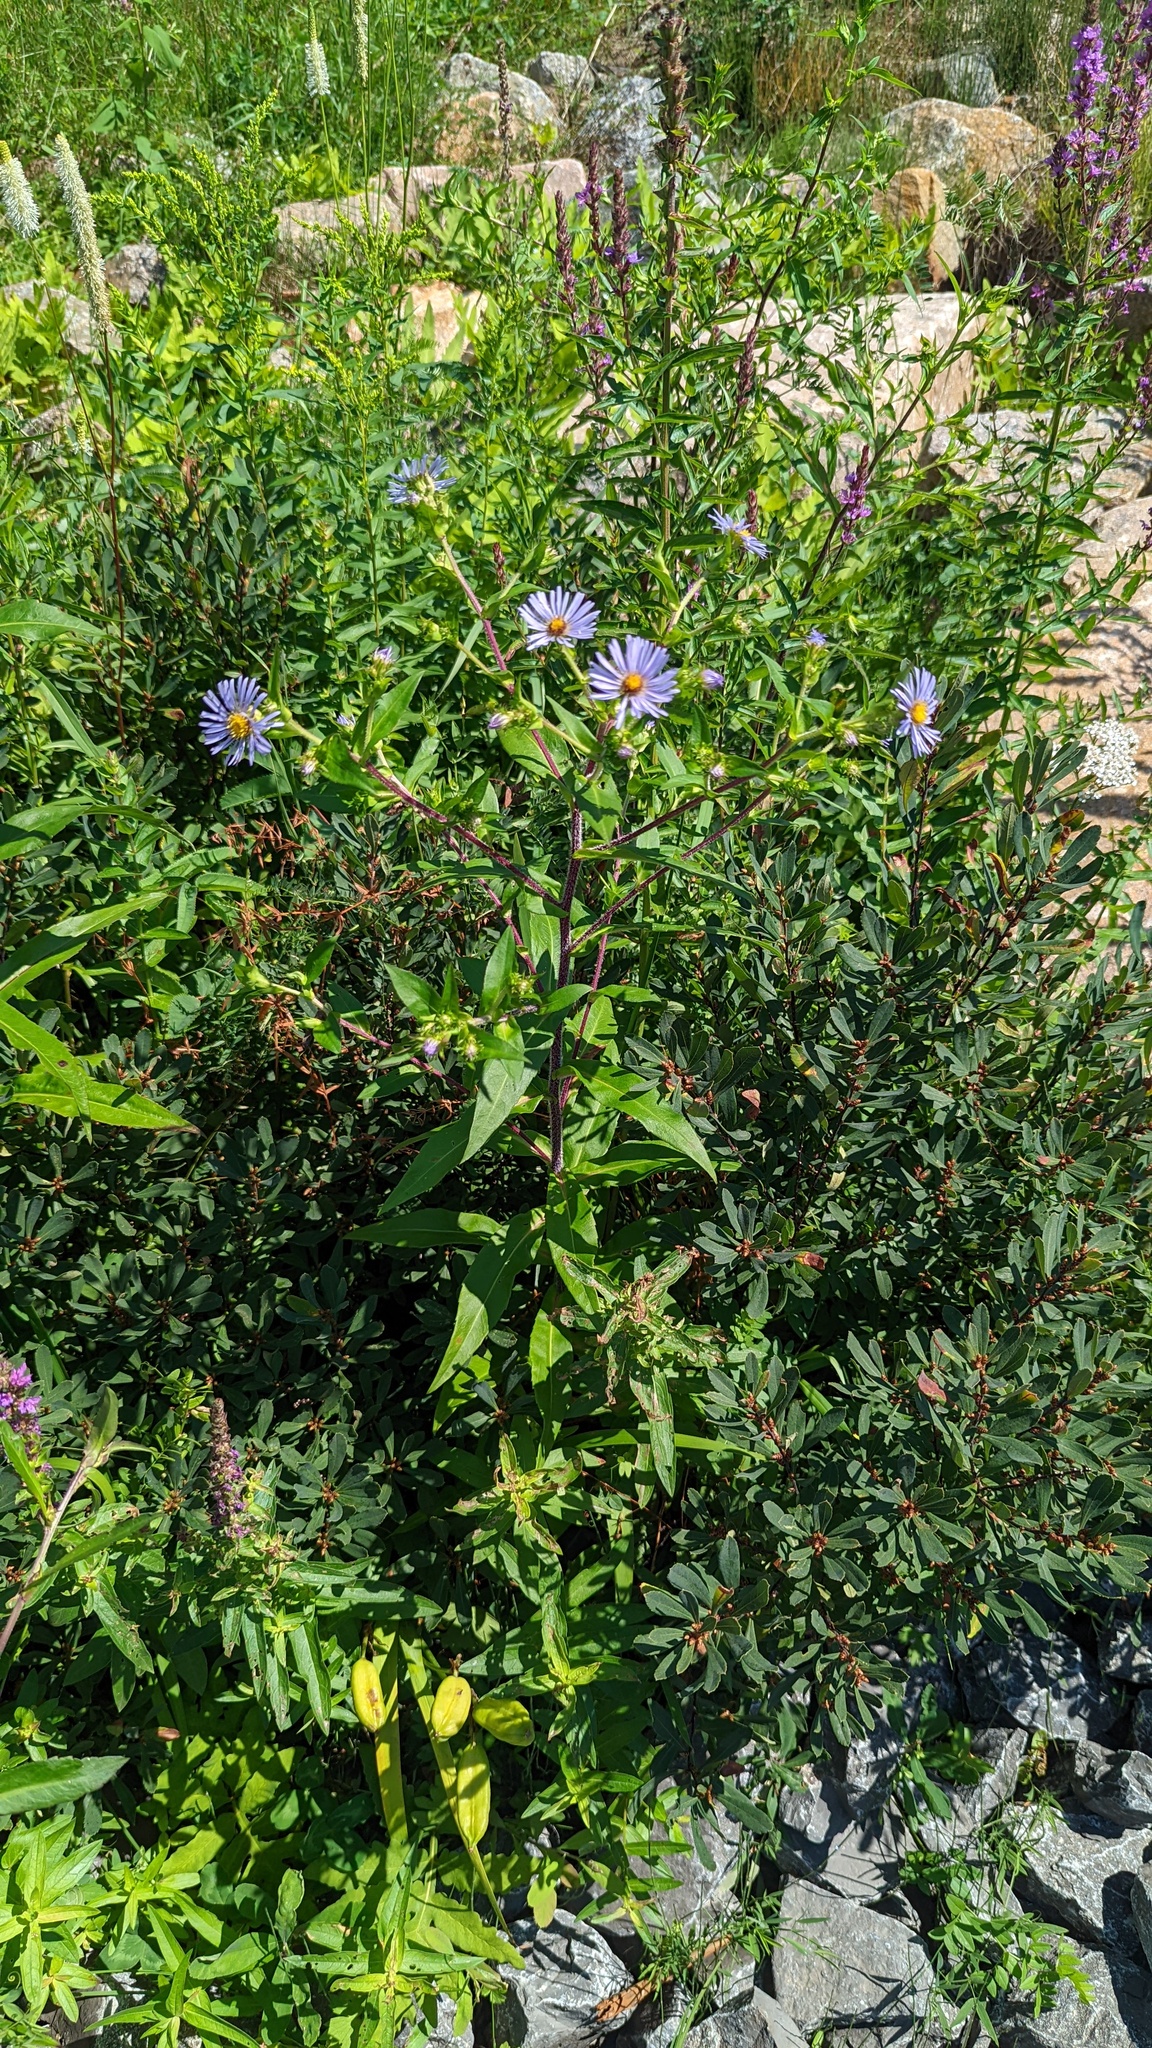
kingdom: Plantae
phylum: Tracheophyta
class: Magnoliopsida
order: Asterales
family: Asteraceae
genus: Symphyotrichum
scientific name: Symphyotrichum puniceum
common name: Bog aster
